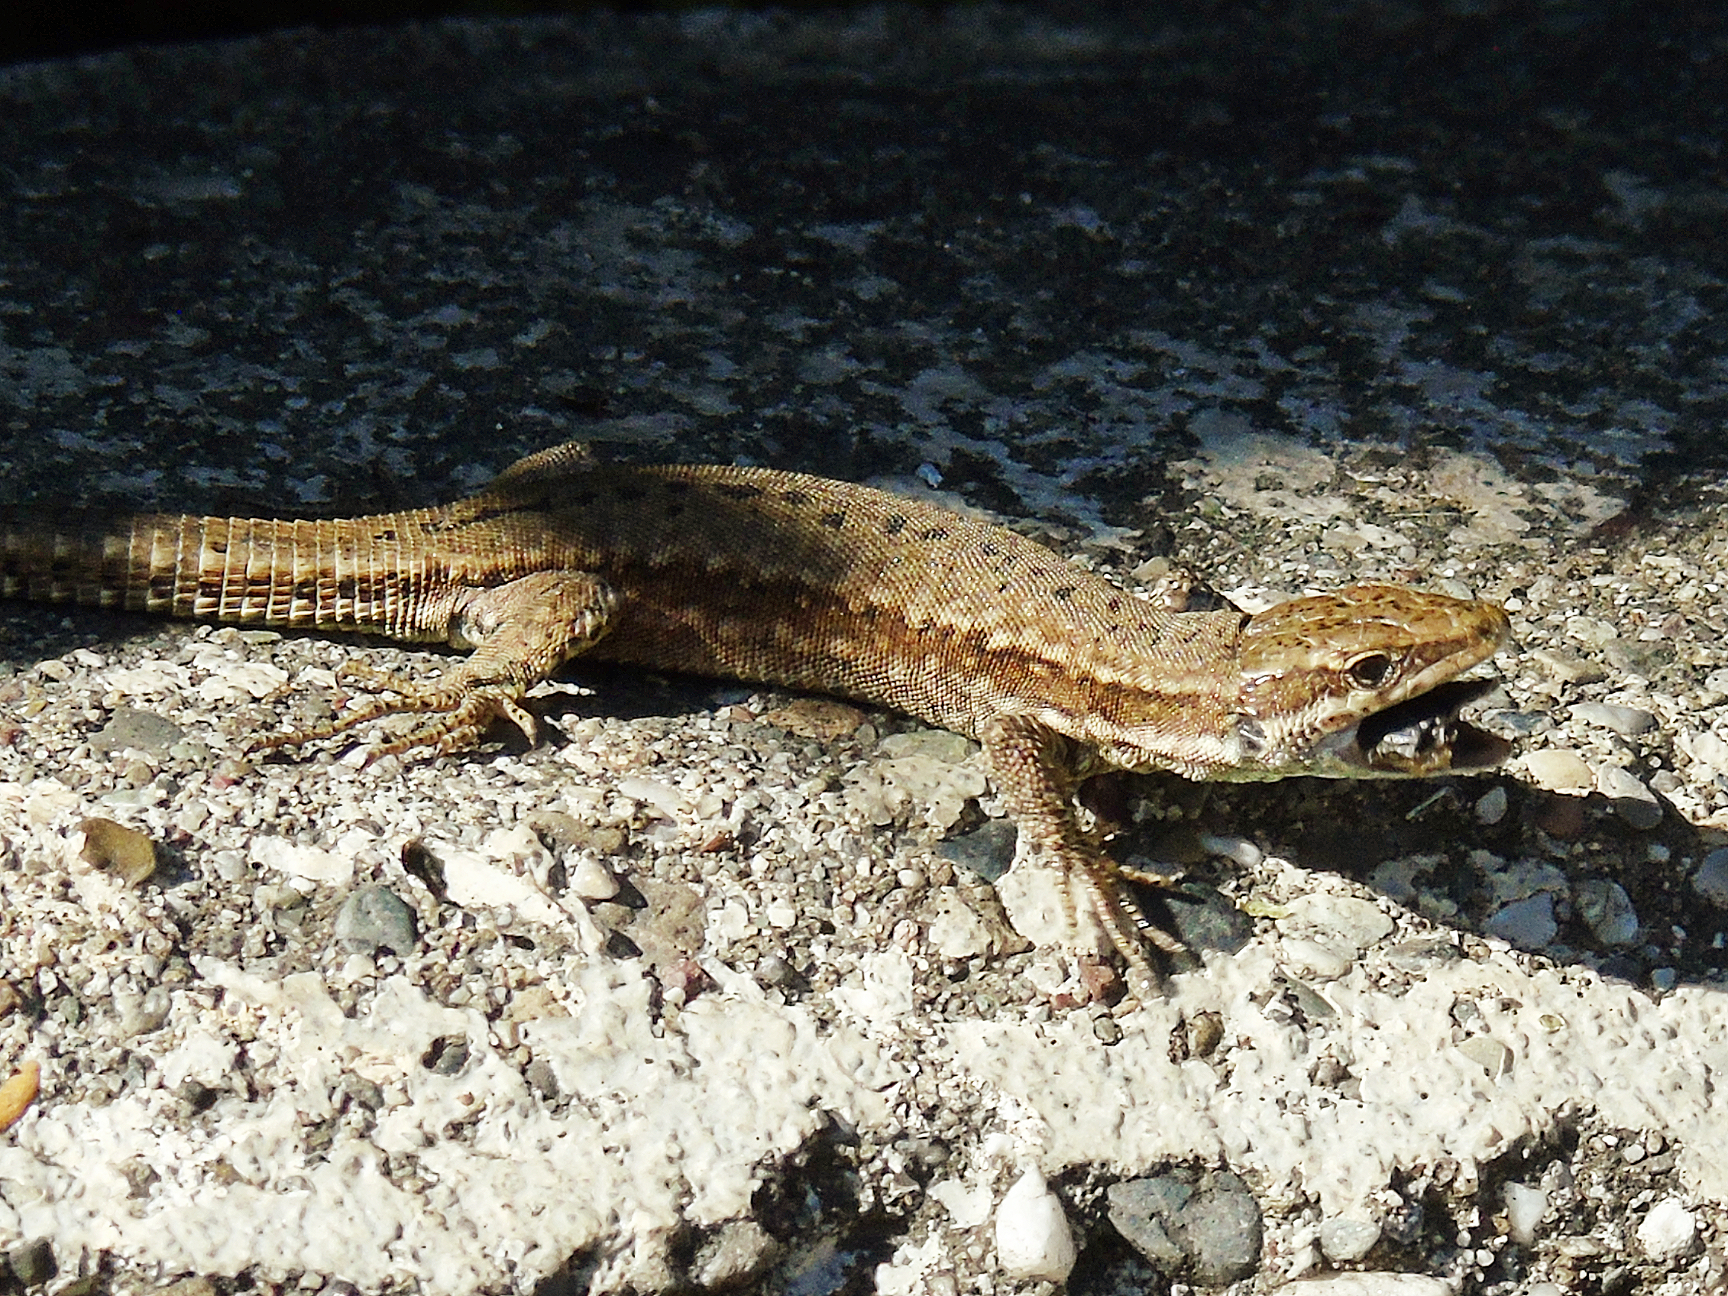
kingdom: Animalia
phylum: Chordata
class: Squamata
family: Lacertidae
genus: Podarcis
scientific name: Podarcis muralis
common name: Common wall lizard
